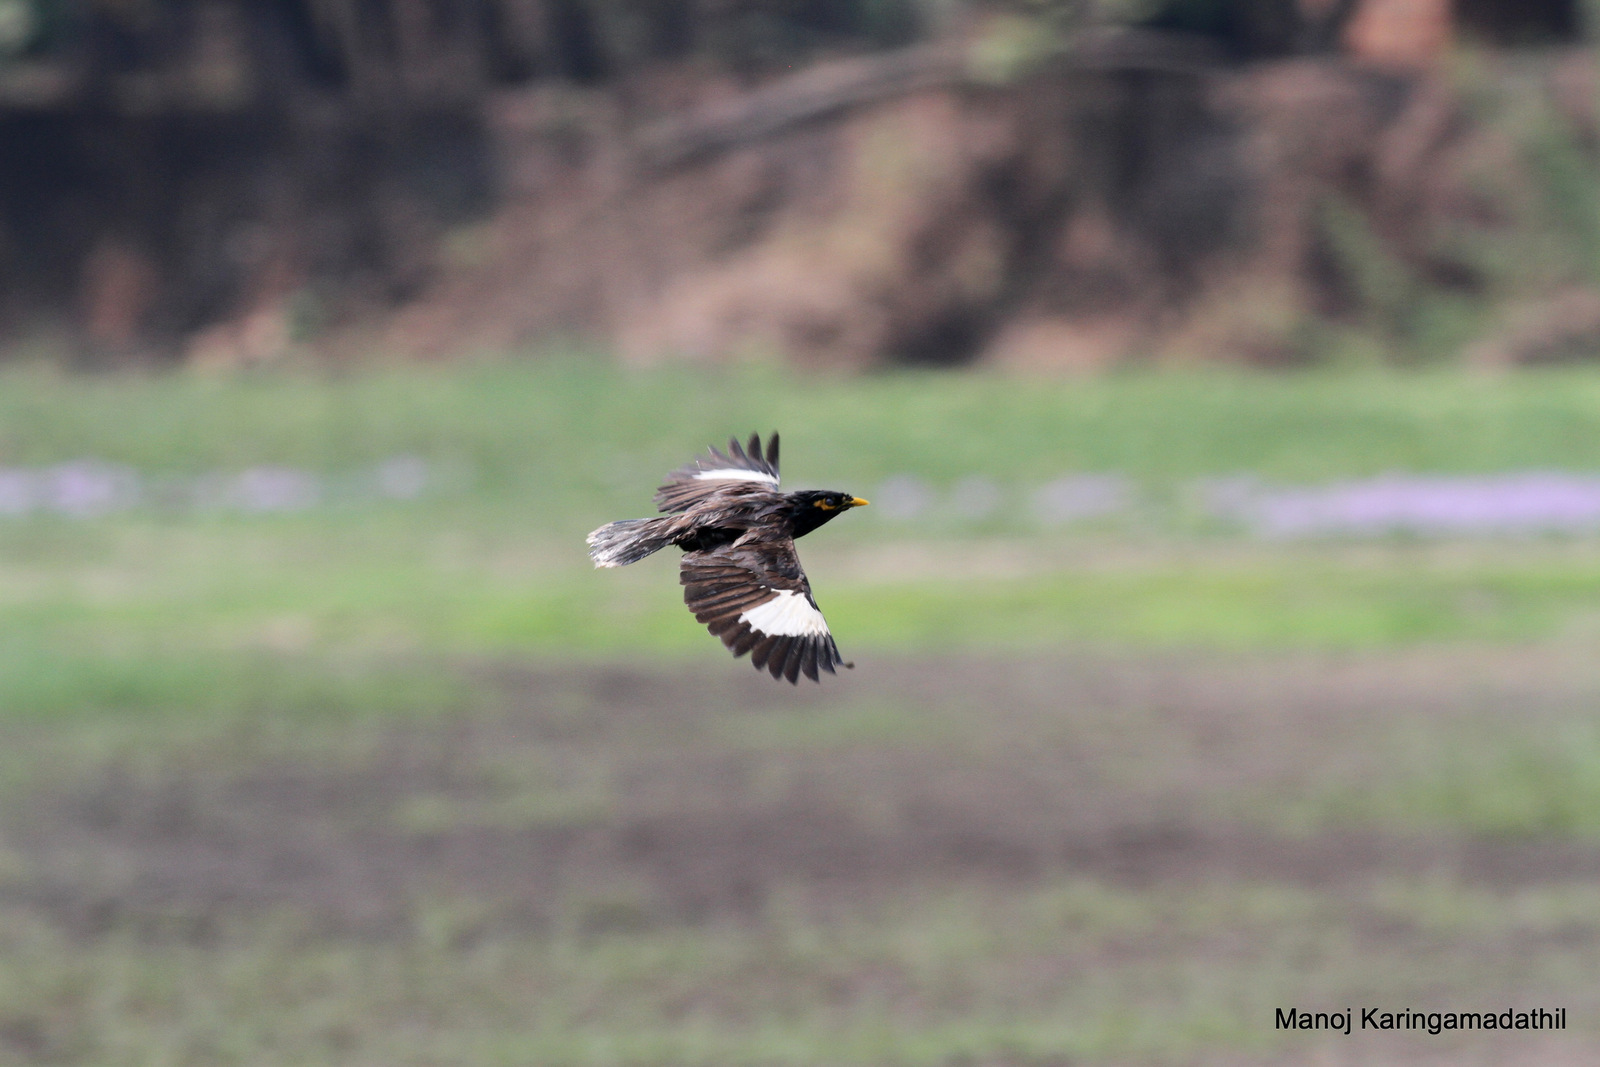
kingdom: Animalia
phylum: Chordata
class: Aves
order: Passeriformes
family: Sturnidae
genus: Acridotheres
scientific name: Acridotheres tristis
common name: Common myna
